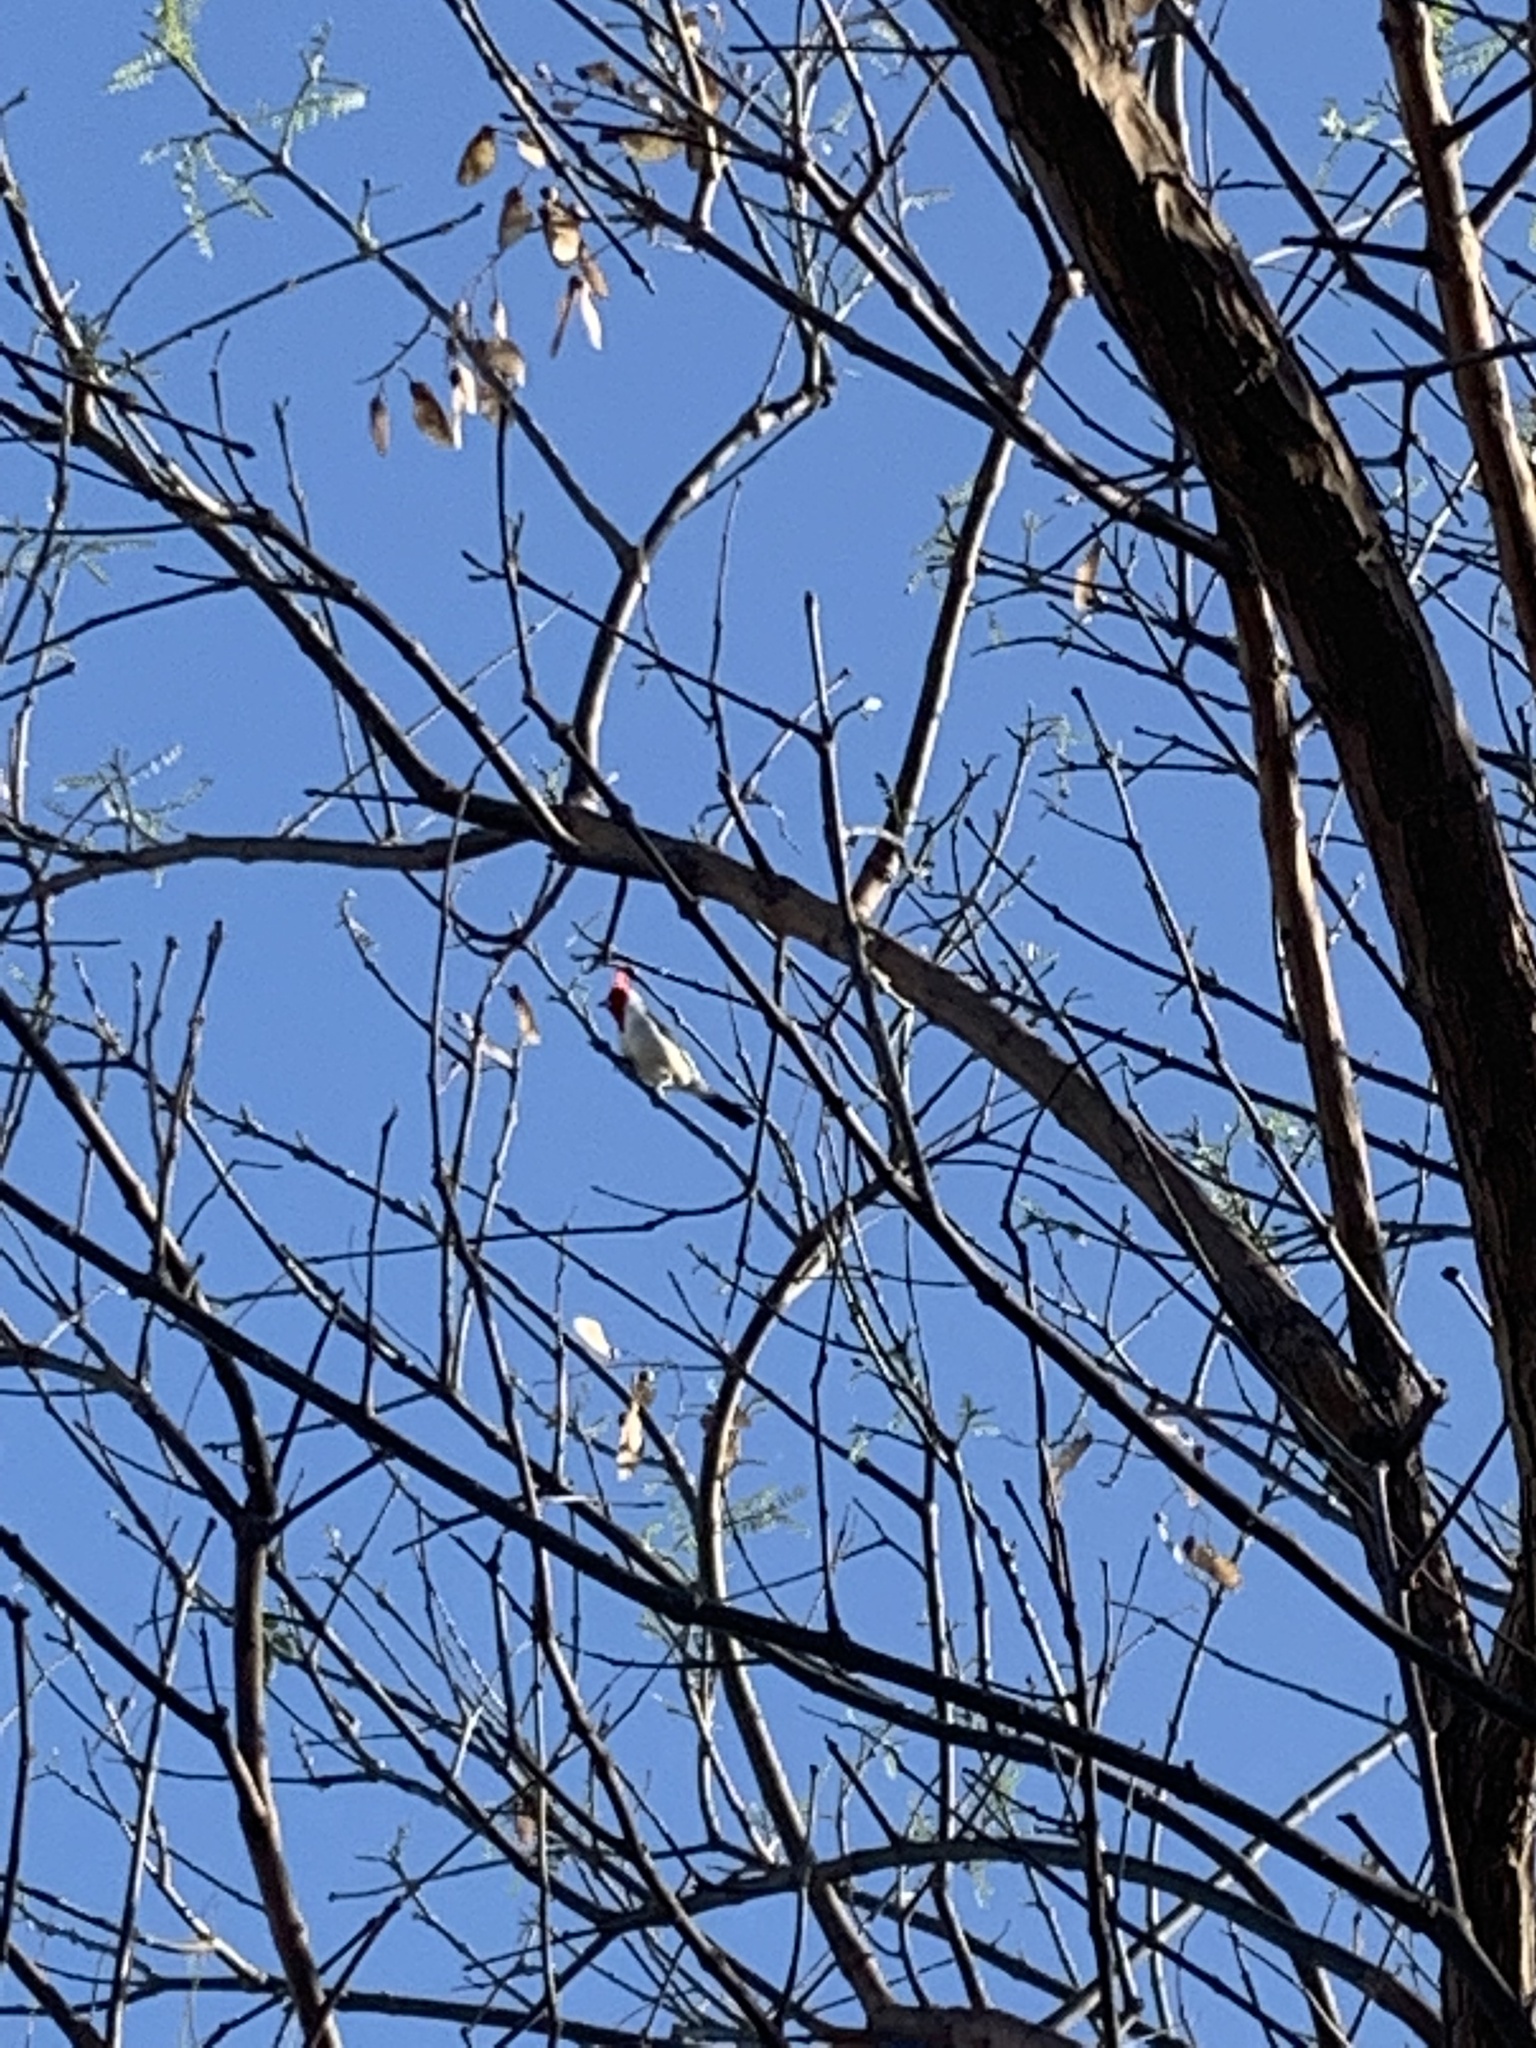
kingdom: Animalia
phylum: Chordata
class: Aves
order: Passeriformes
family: Thraupidae
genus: Paroaria
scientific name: Paroaria coronata
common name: Red-crested cardinal
